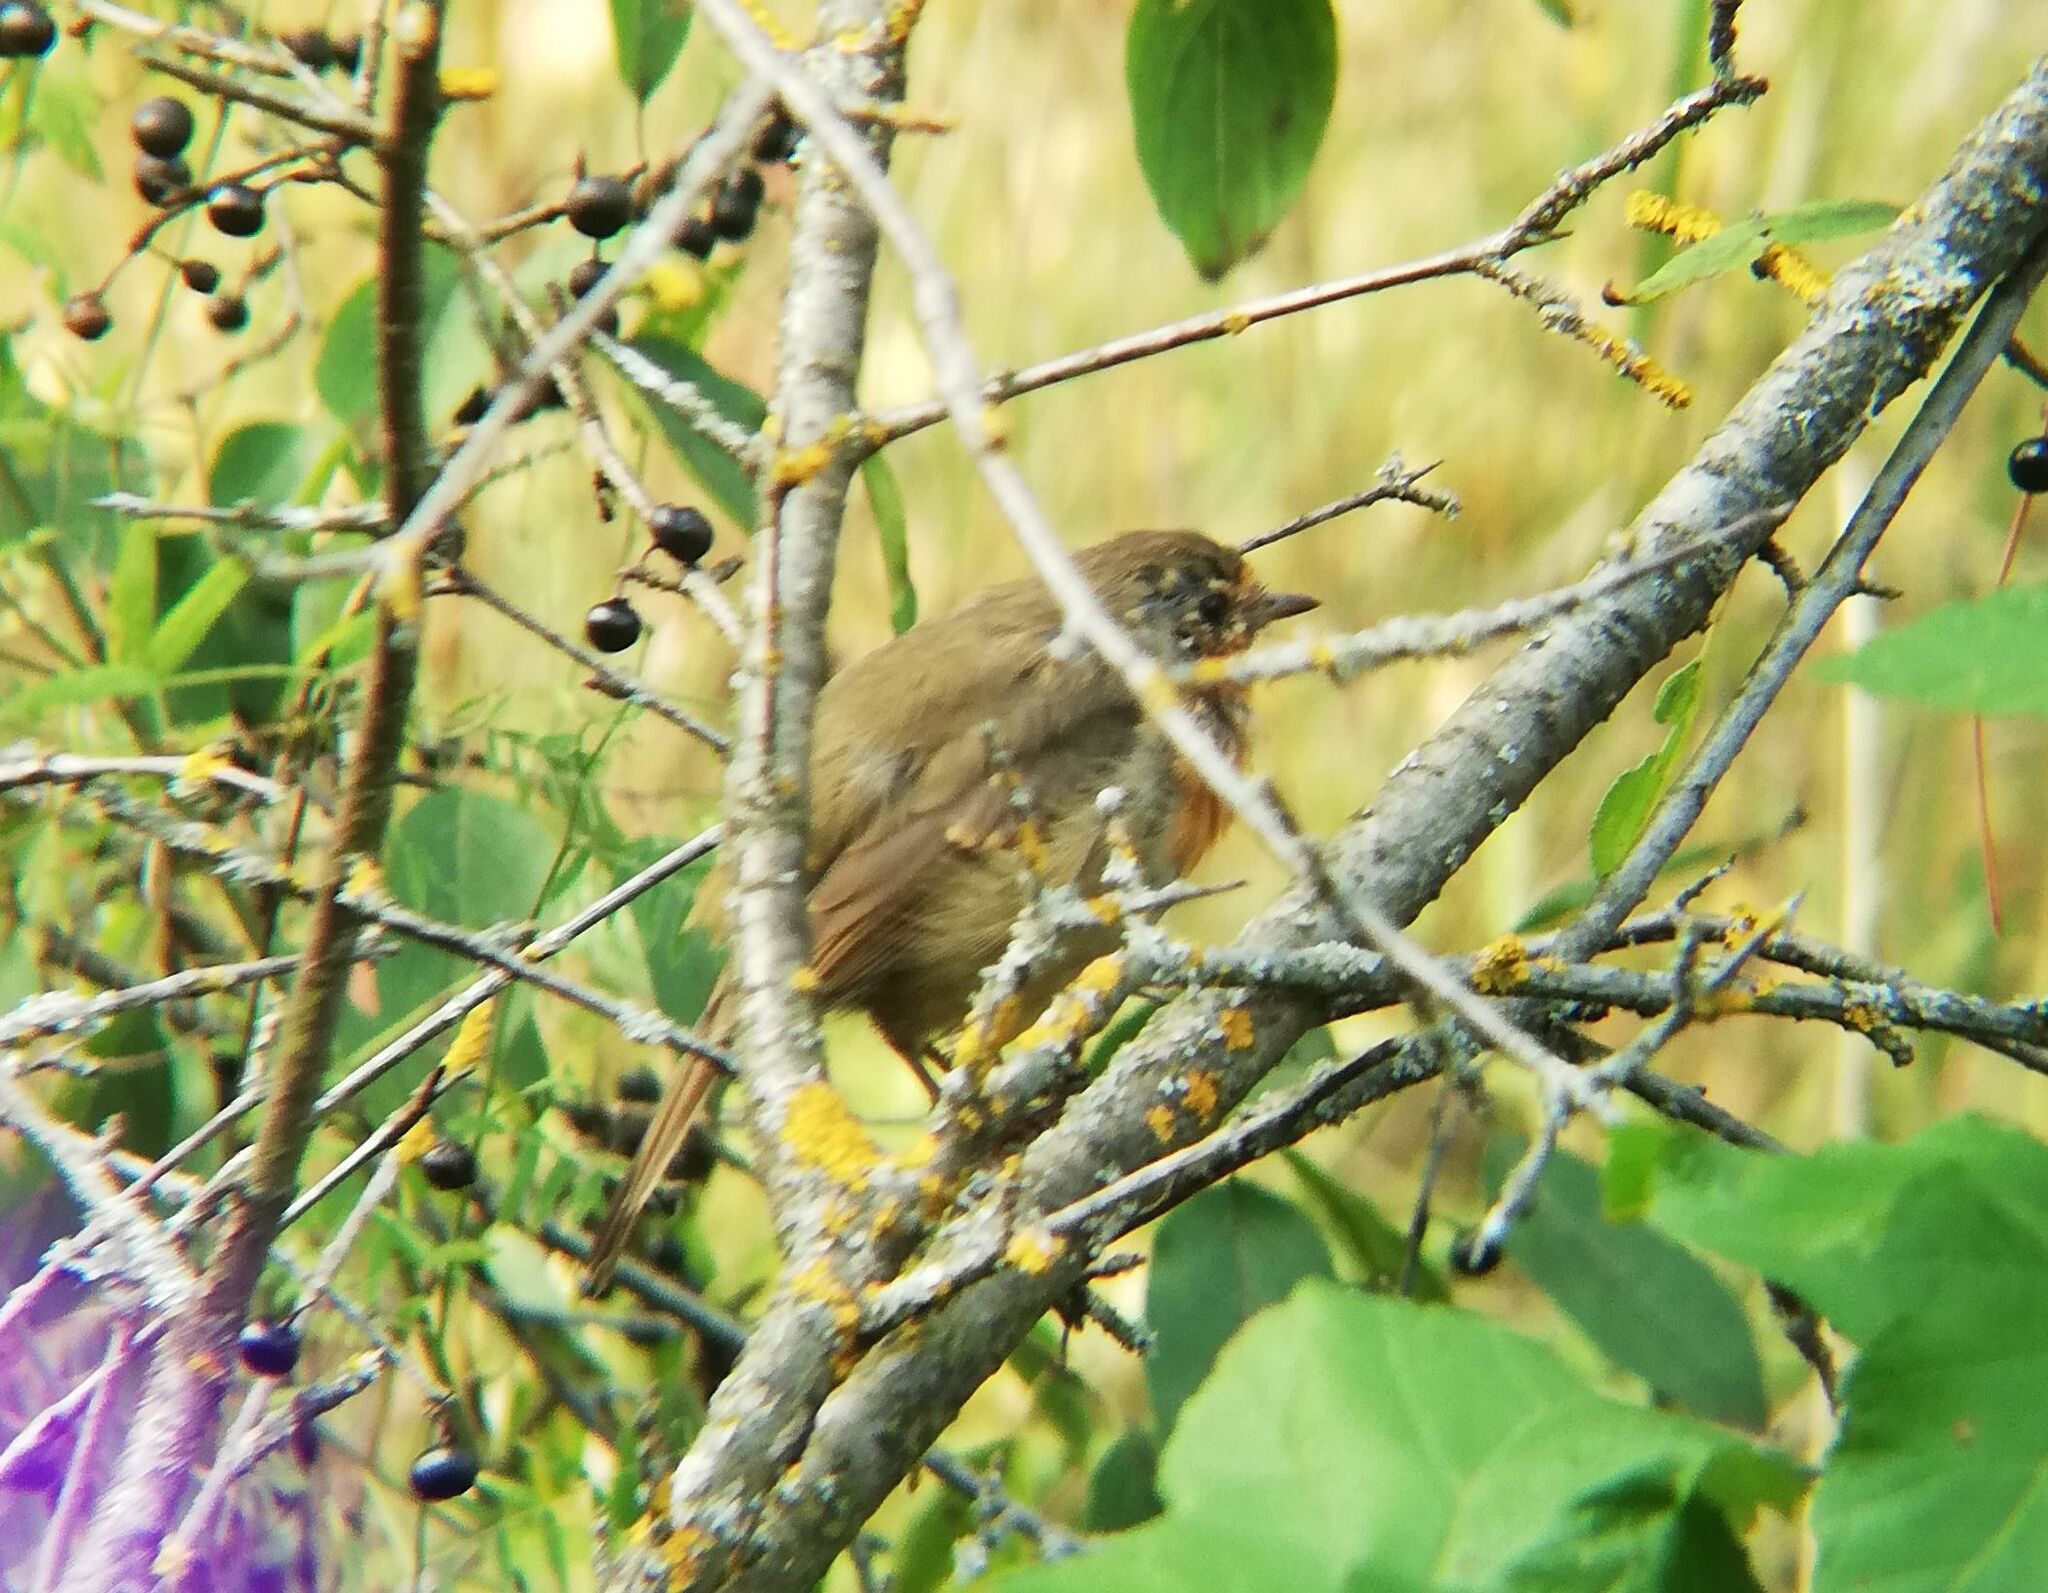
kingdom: Animalia
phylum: Chordata
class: Aves
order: Passeriformes
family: Muscicapidae
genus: Erithacus
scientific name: Erithacus rubecula
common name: European robin
